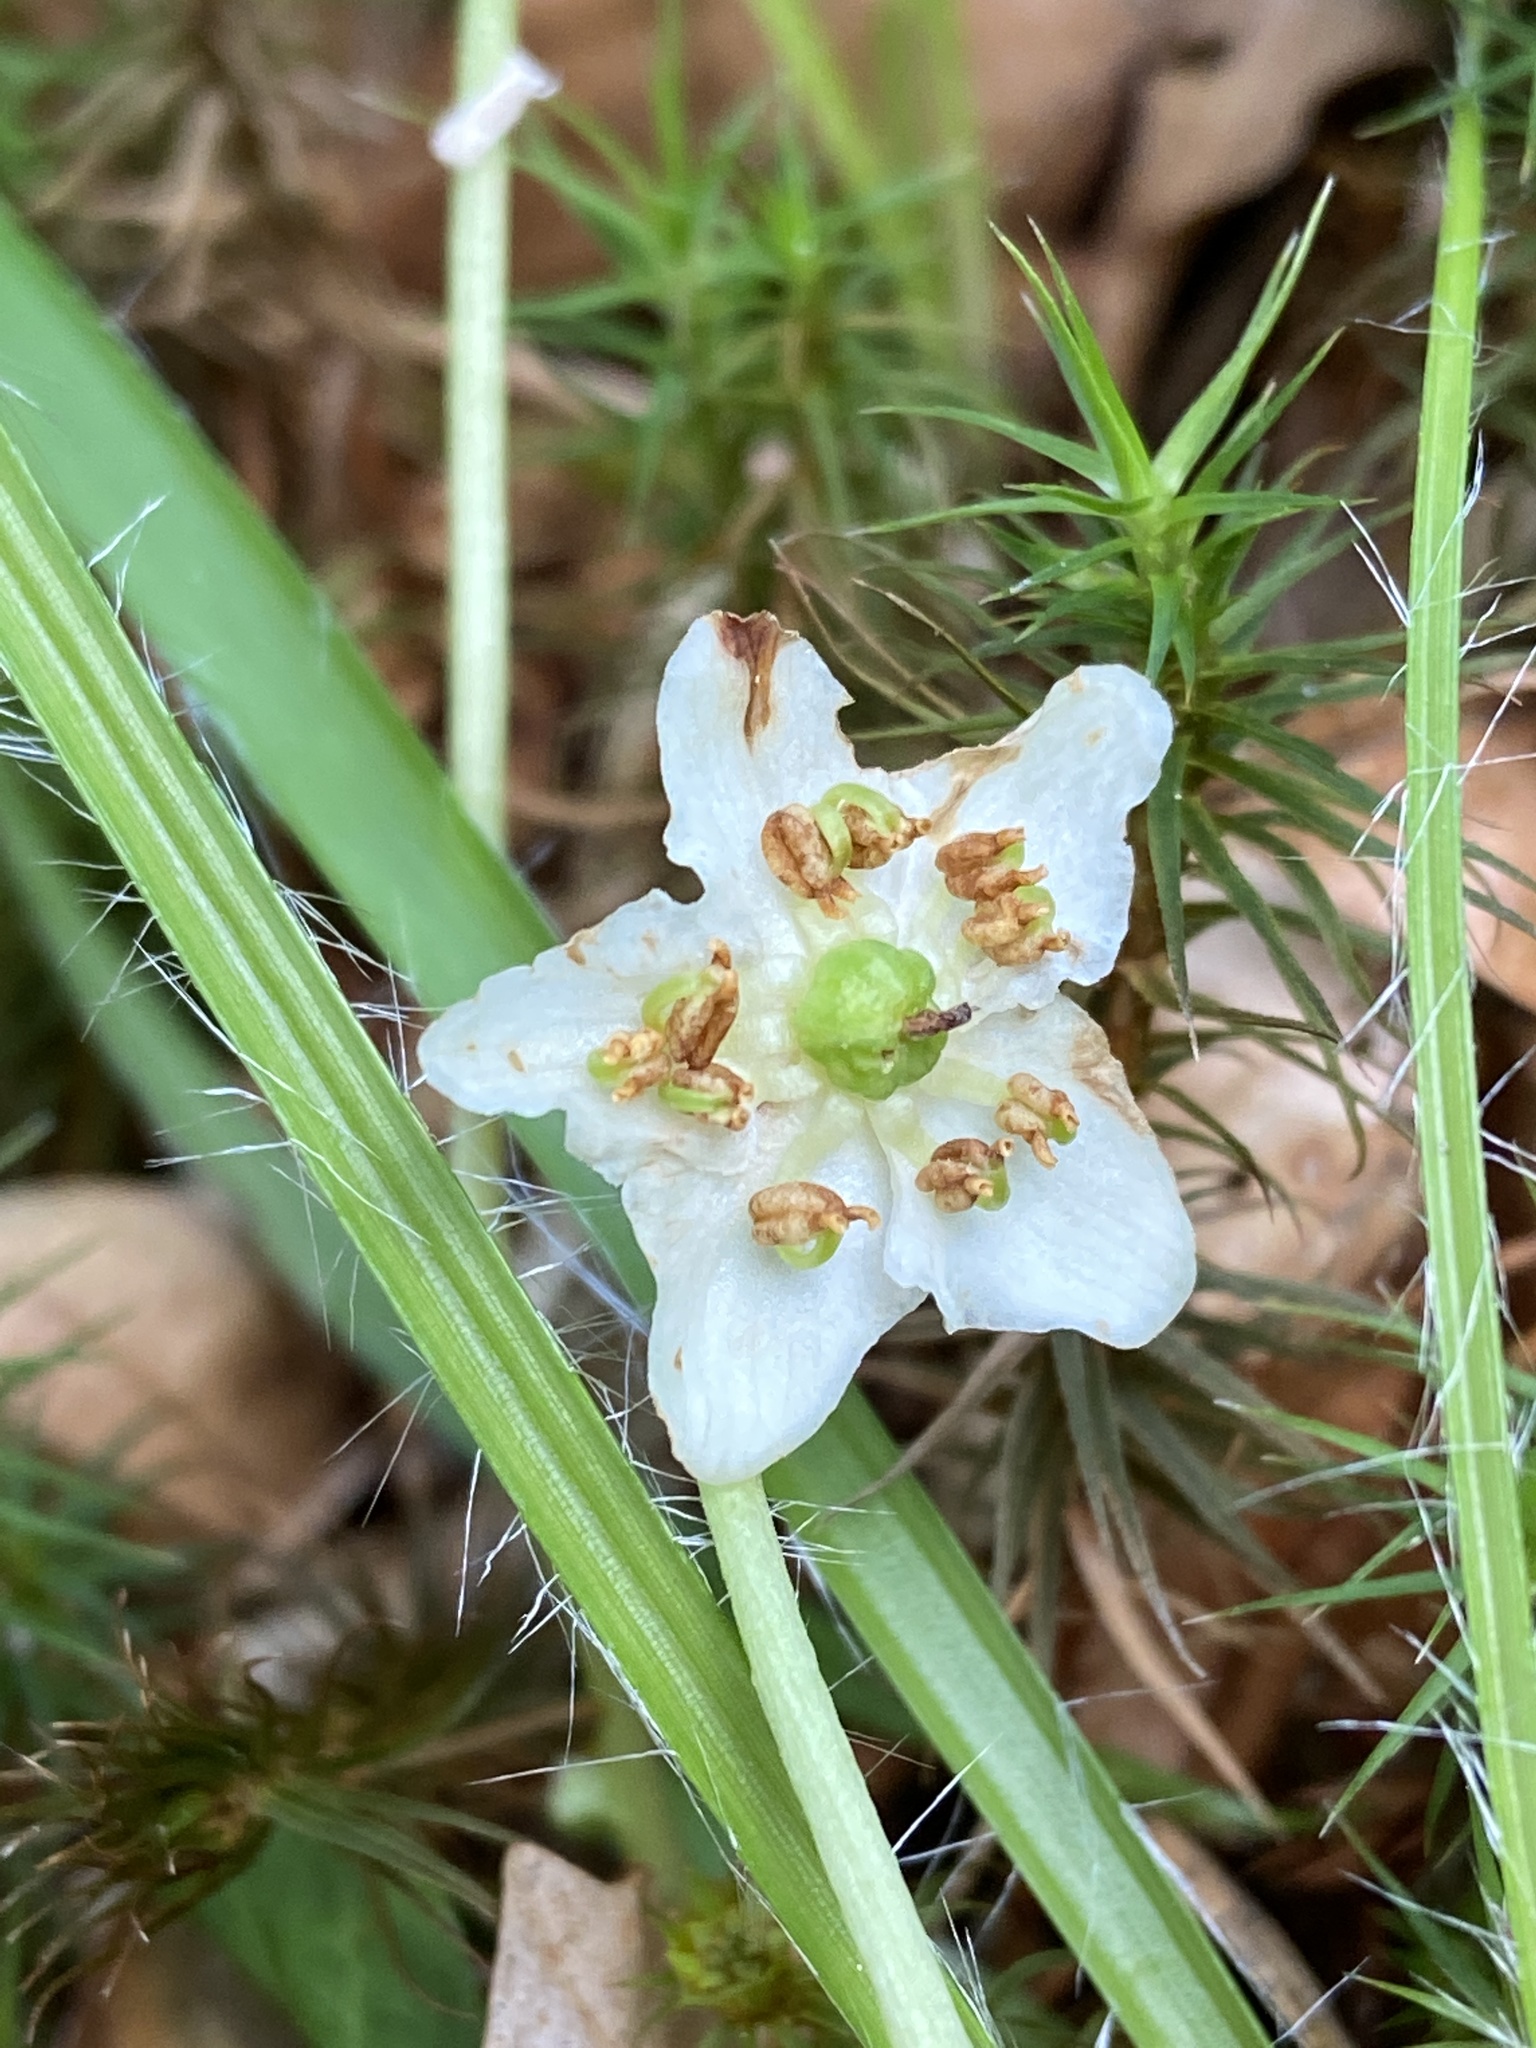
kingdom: Plantae
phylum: Tracheophyta
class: Magnoliopsida
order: Ericales
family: Ericaceae
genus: Moneses
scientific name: Moneses uniflora
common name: One-flowered wintergreen
